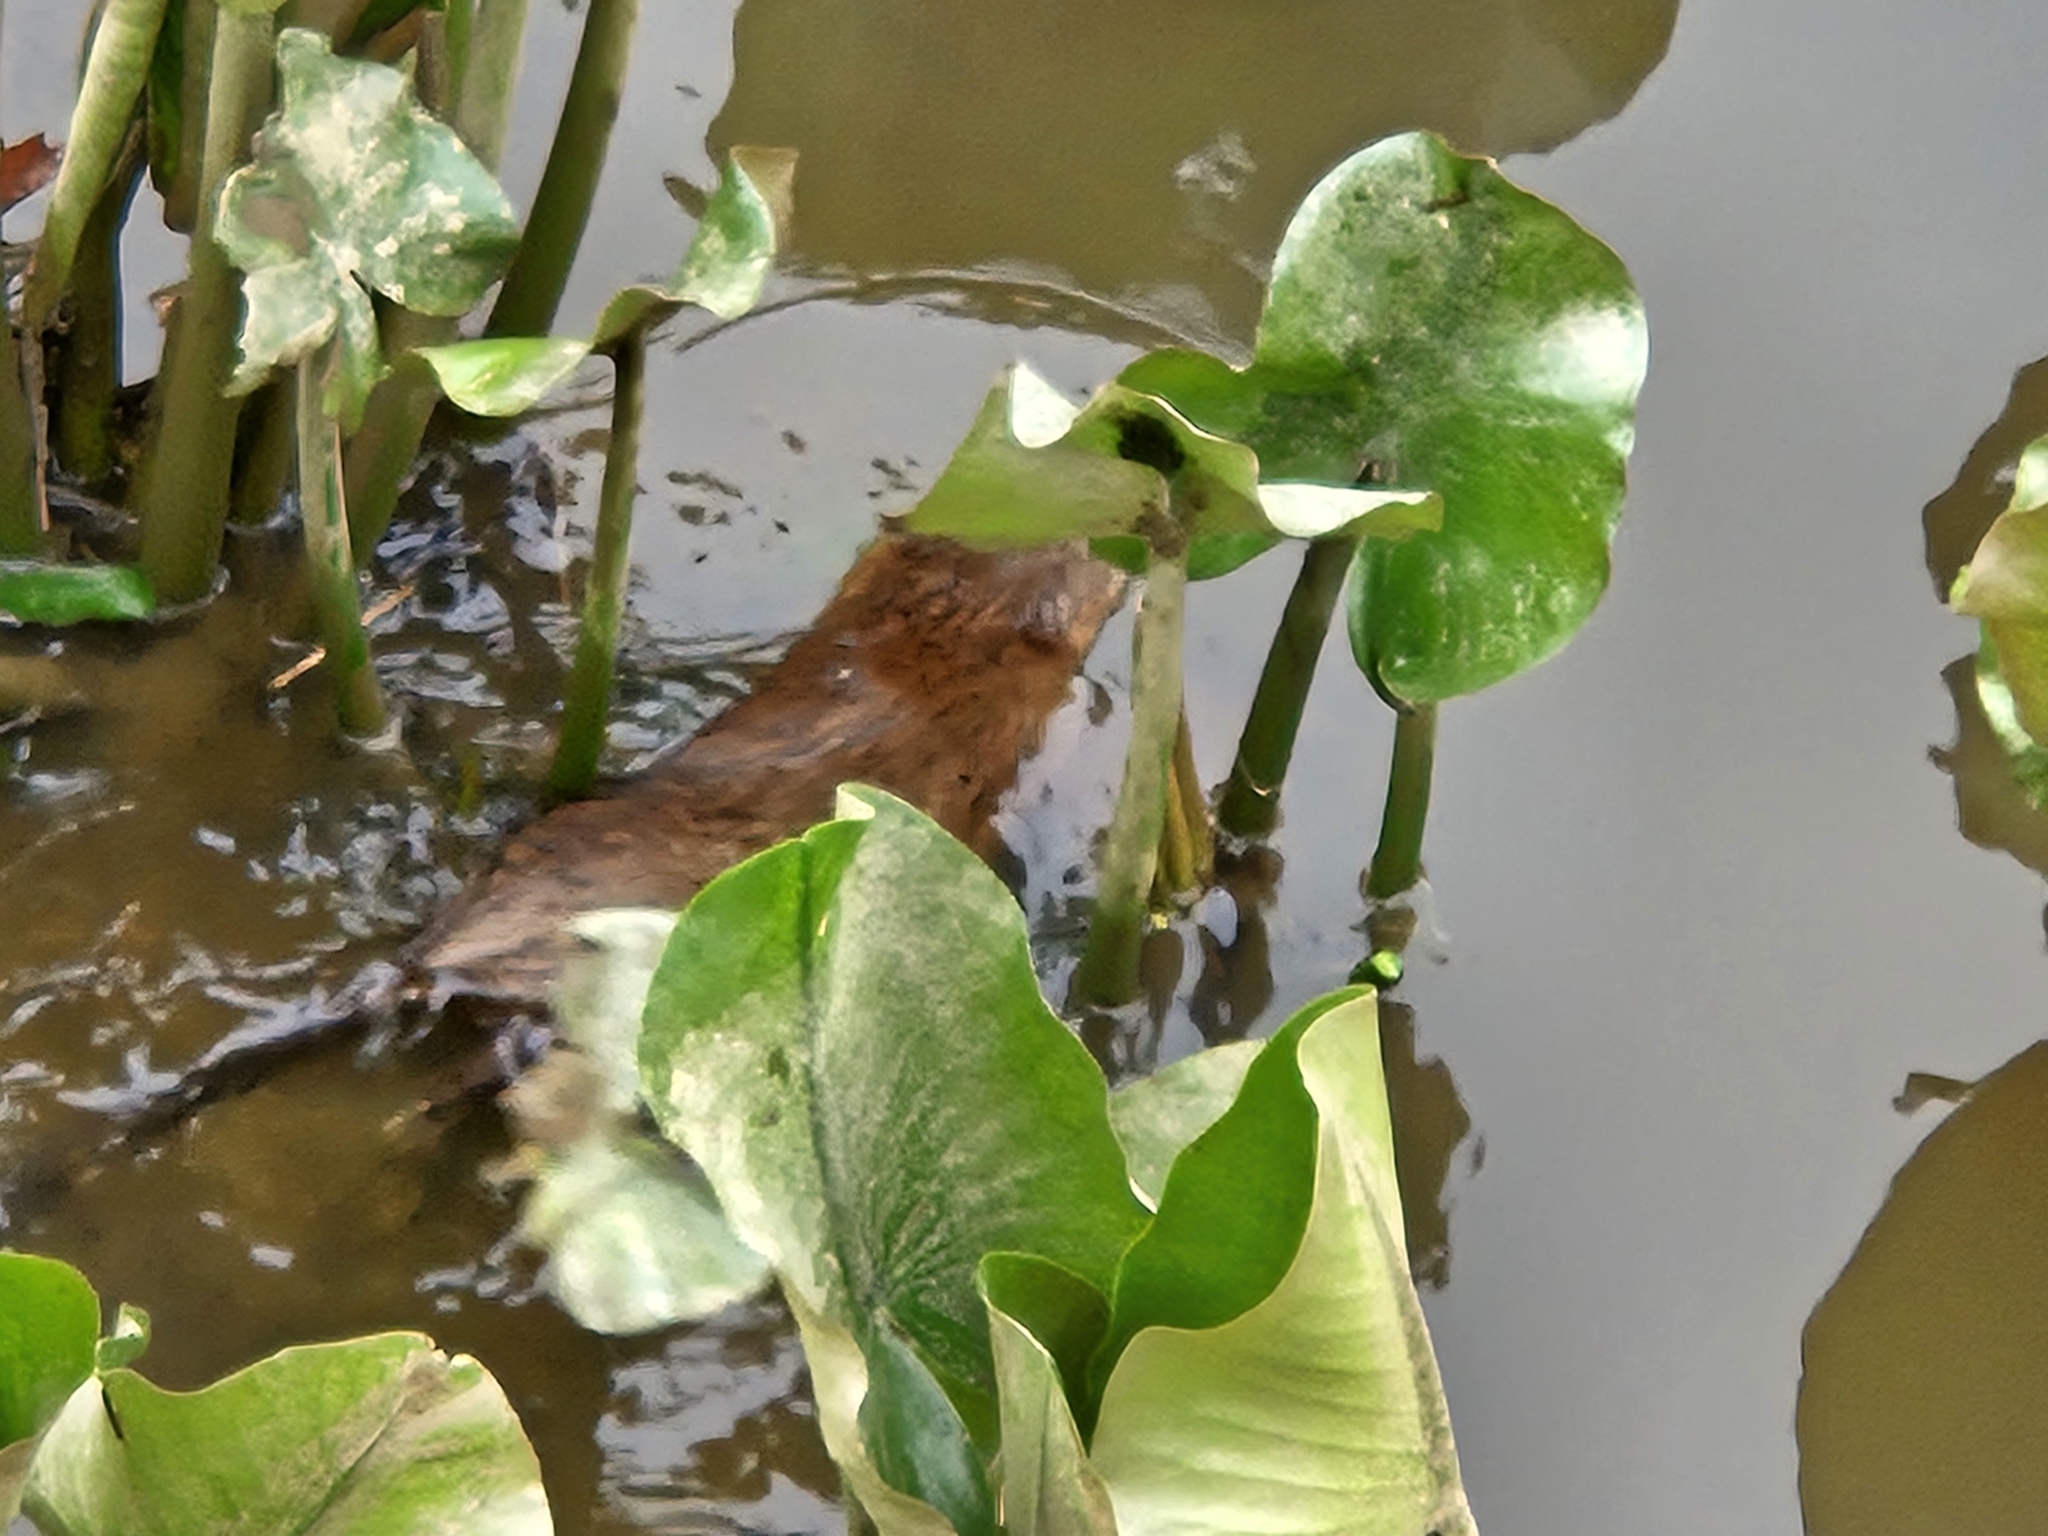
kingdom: Animalia
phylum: Chordata
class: Mammalia
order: Rodentia
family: Cricetidae
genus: Ondatra
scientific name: Ondatra zibethicus
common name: Muskrat
